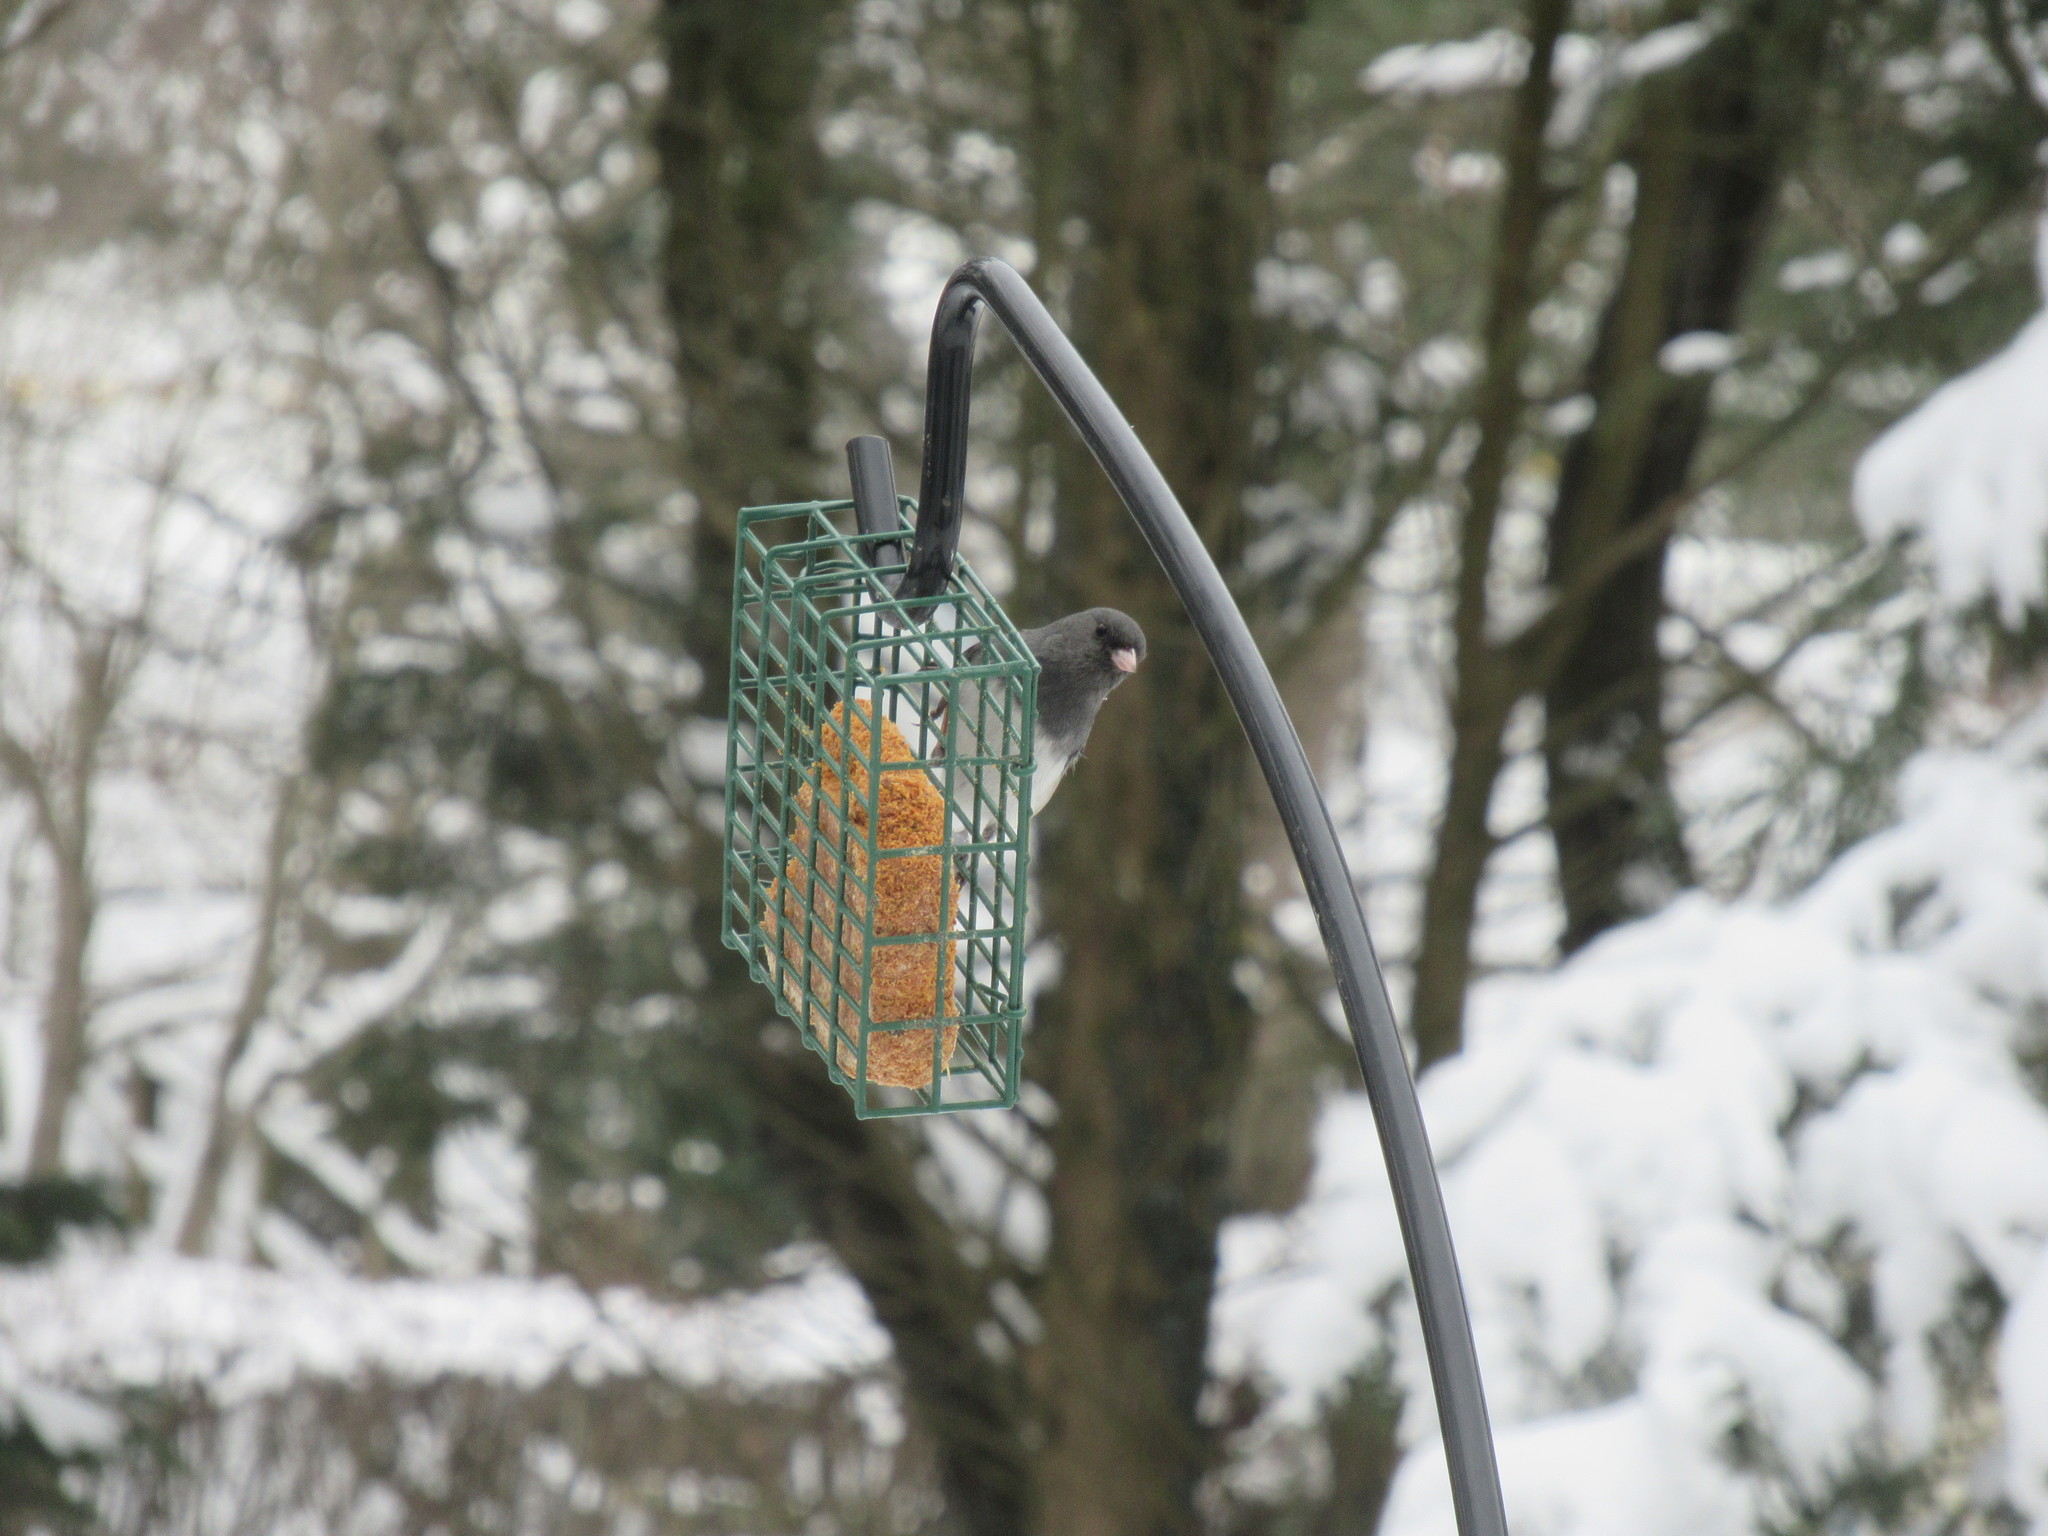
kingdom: Animalia
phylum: Chordata
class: Aves
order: Passeriformes
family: Passerellidae
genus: Junco
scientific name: Junco hyemalis
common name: Dark-eyed junco
